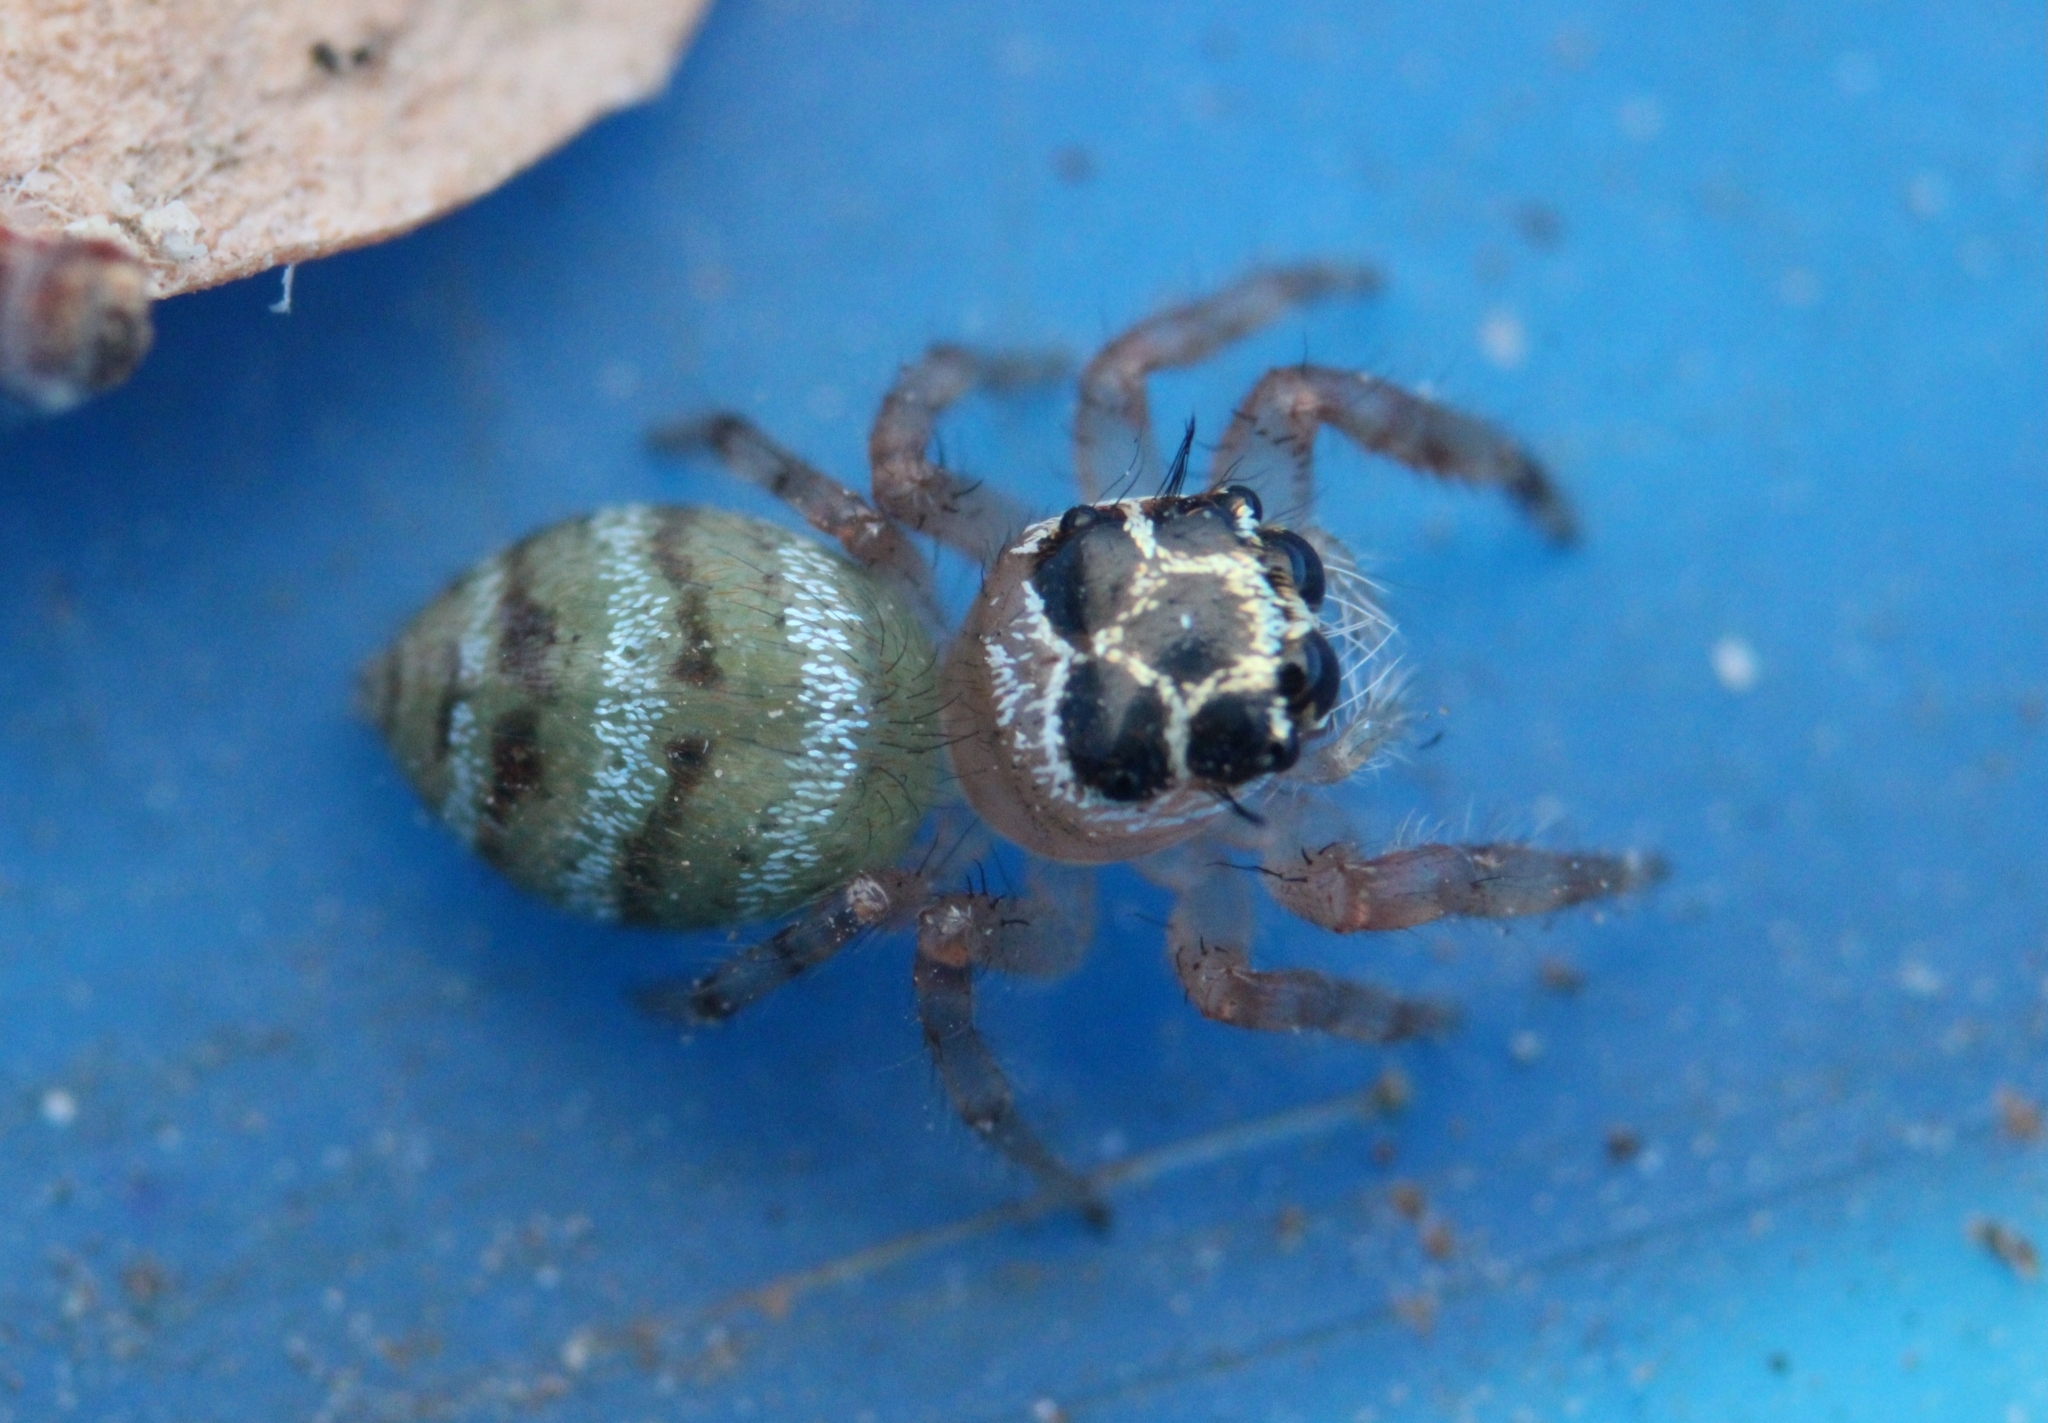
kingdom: Animalia
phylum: Arthropoda
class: Arachnida
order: Araneae
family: Salticidae
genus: Thyene
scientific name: Thyene natalii
